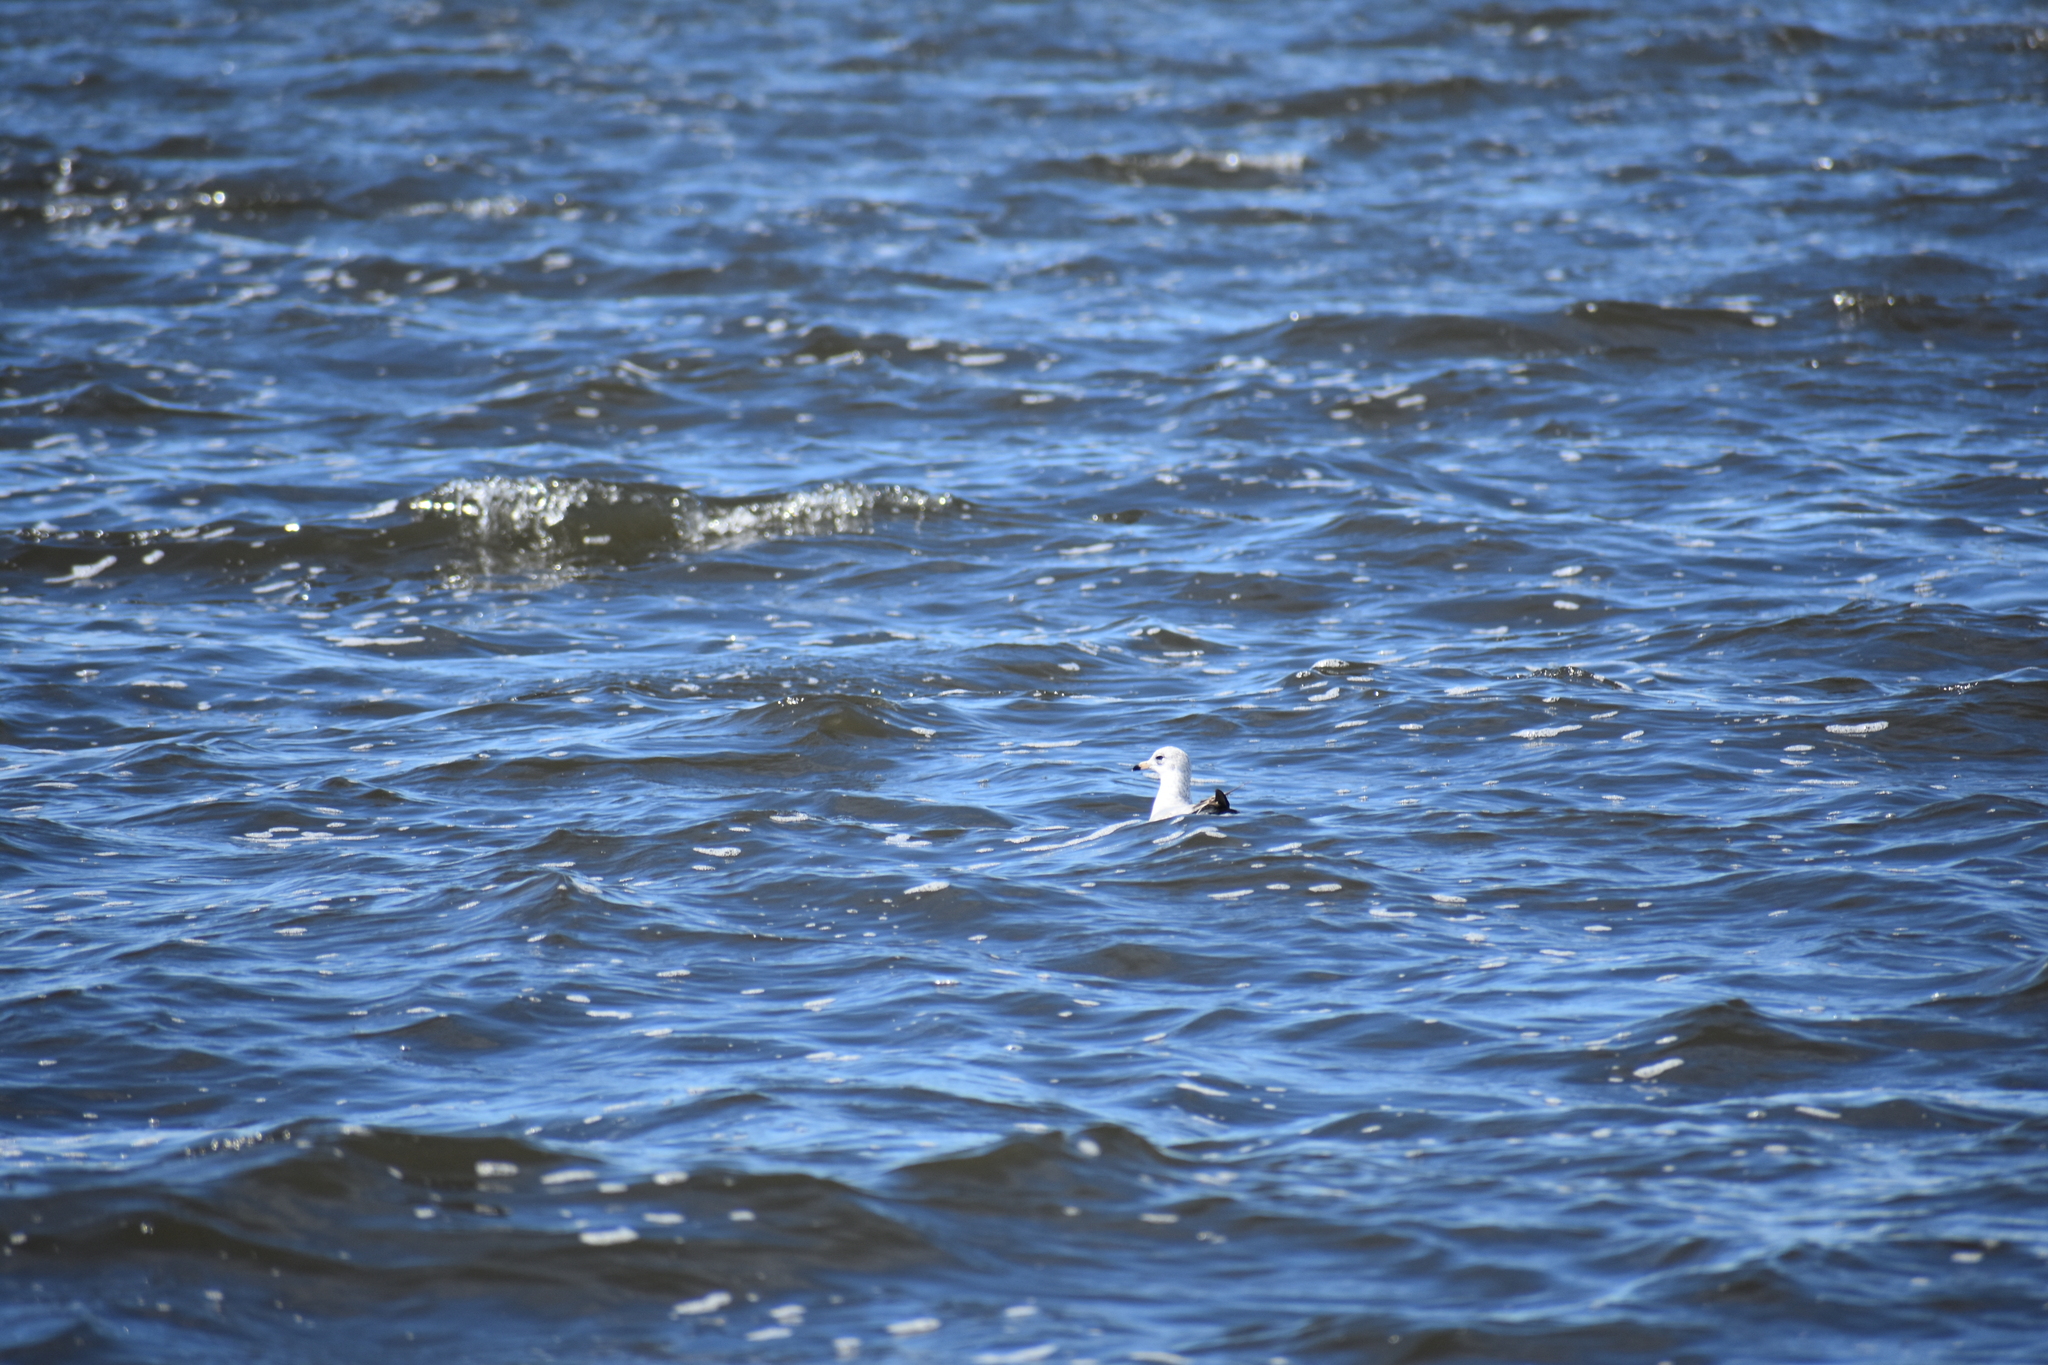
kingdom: Animalia
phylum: Chordata
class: Aves
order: Charadriiformes
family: Laridae
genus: Larus
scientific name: Larus delawarensis
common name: Ring-billed gull
